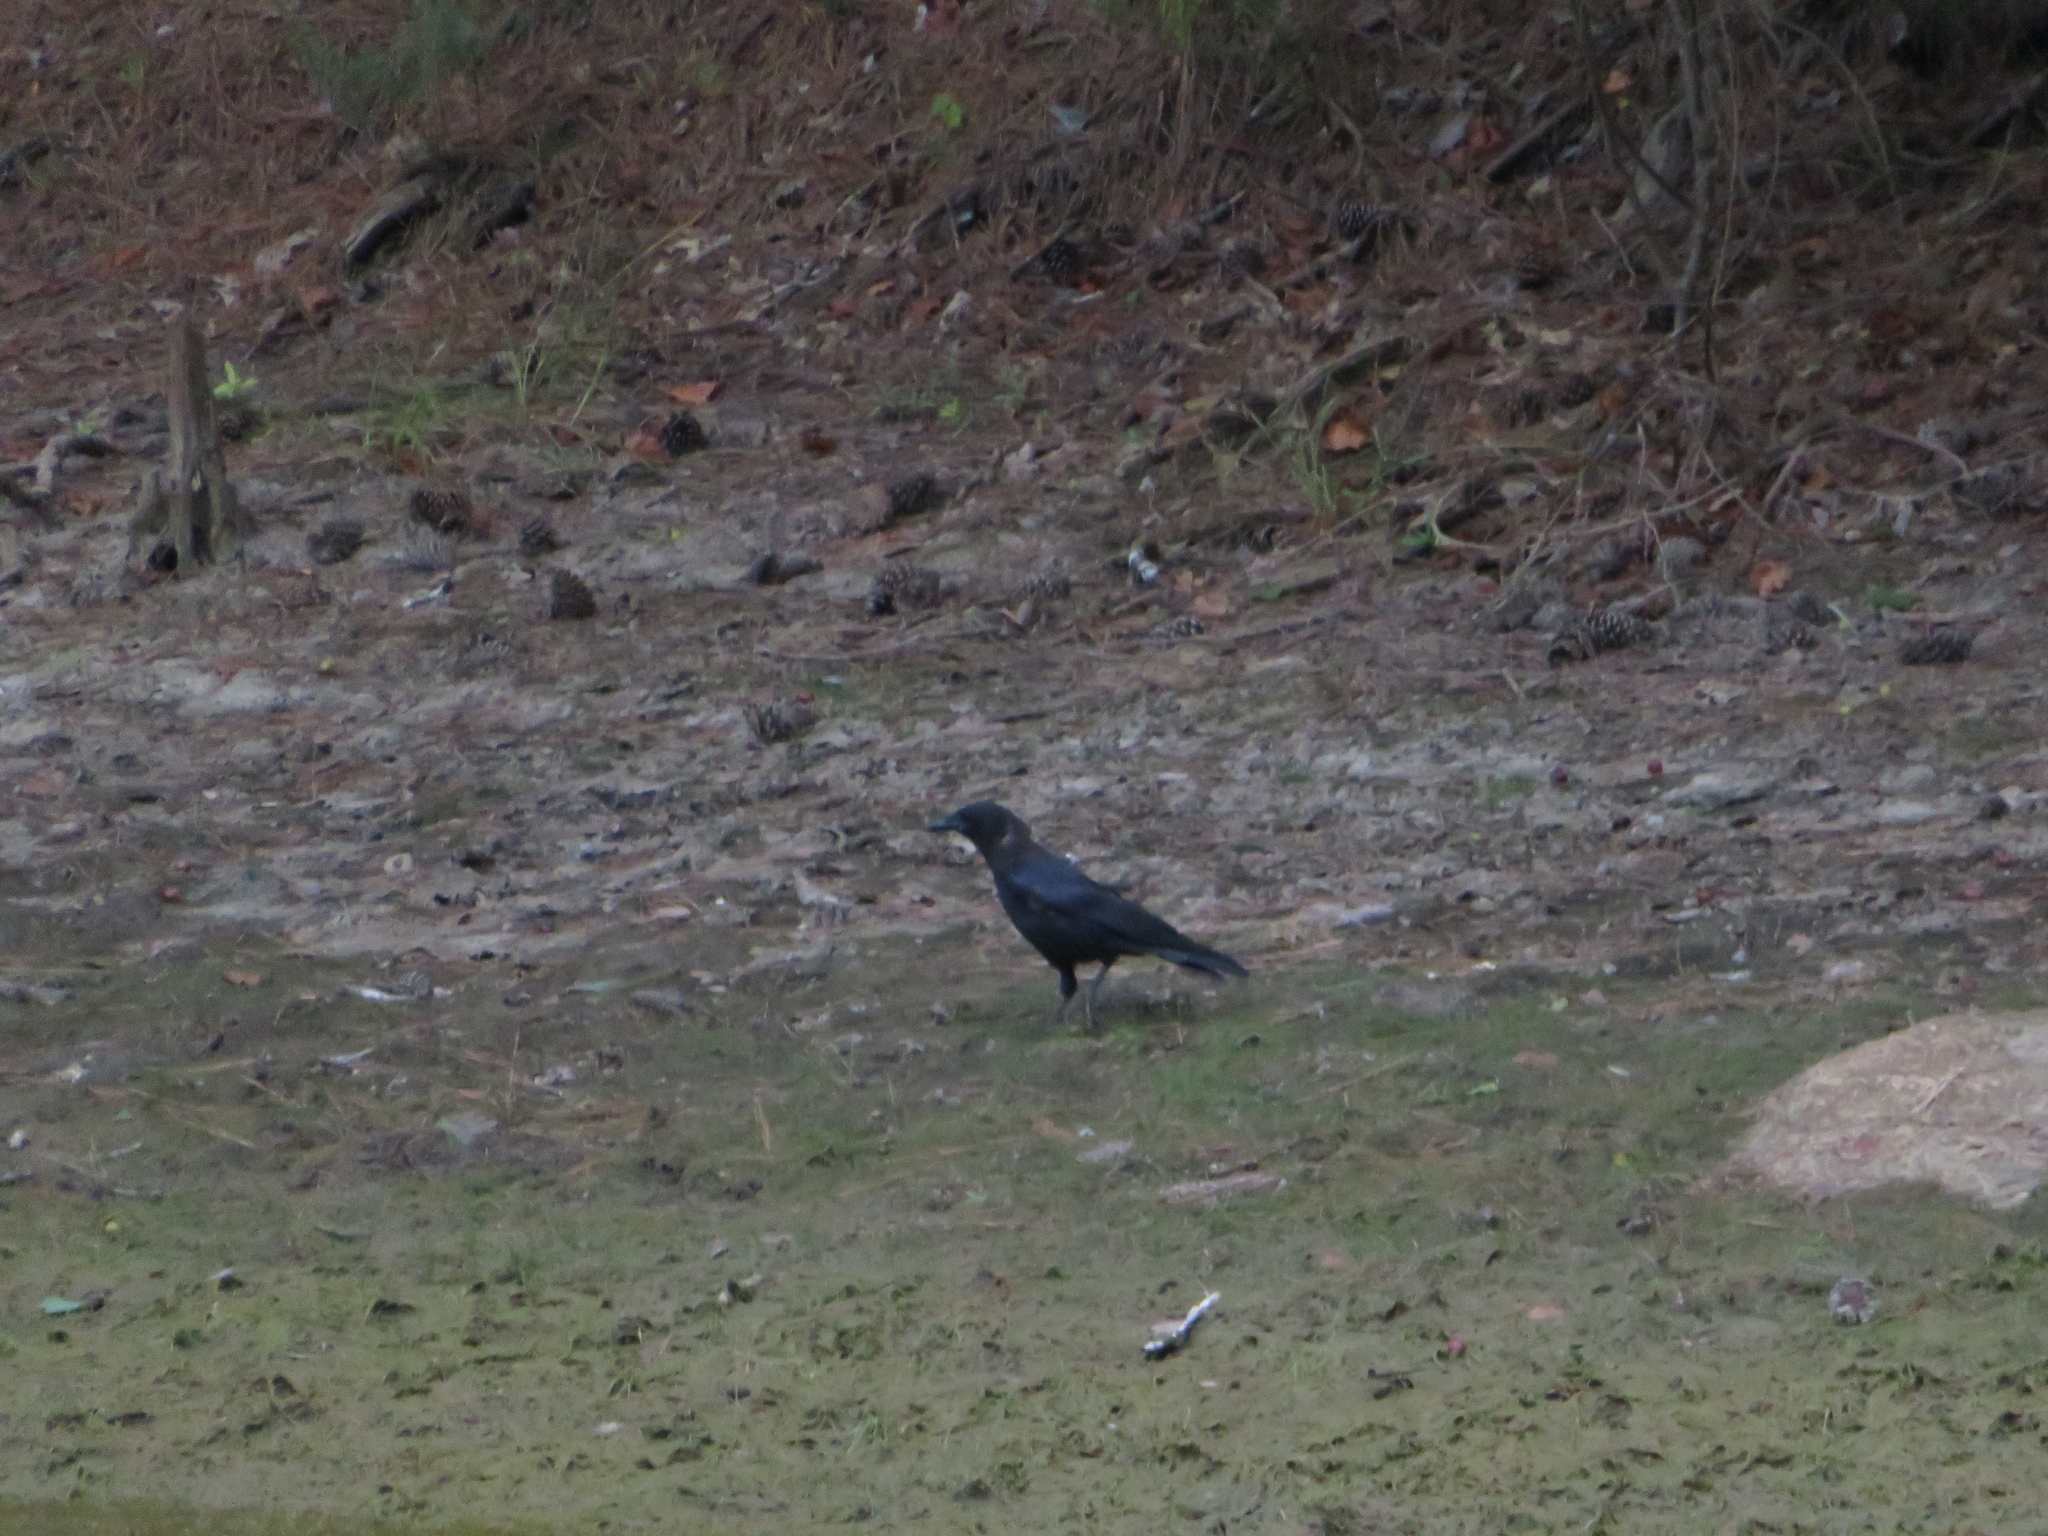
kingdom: Animalia
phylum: Chordata
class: Aves
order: Passeriformes
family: Corvidae
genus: Corvus
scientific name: Corvus brachyrhynchos
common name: American crow
